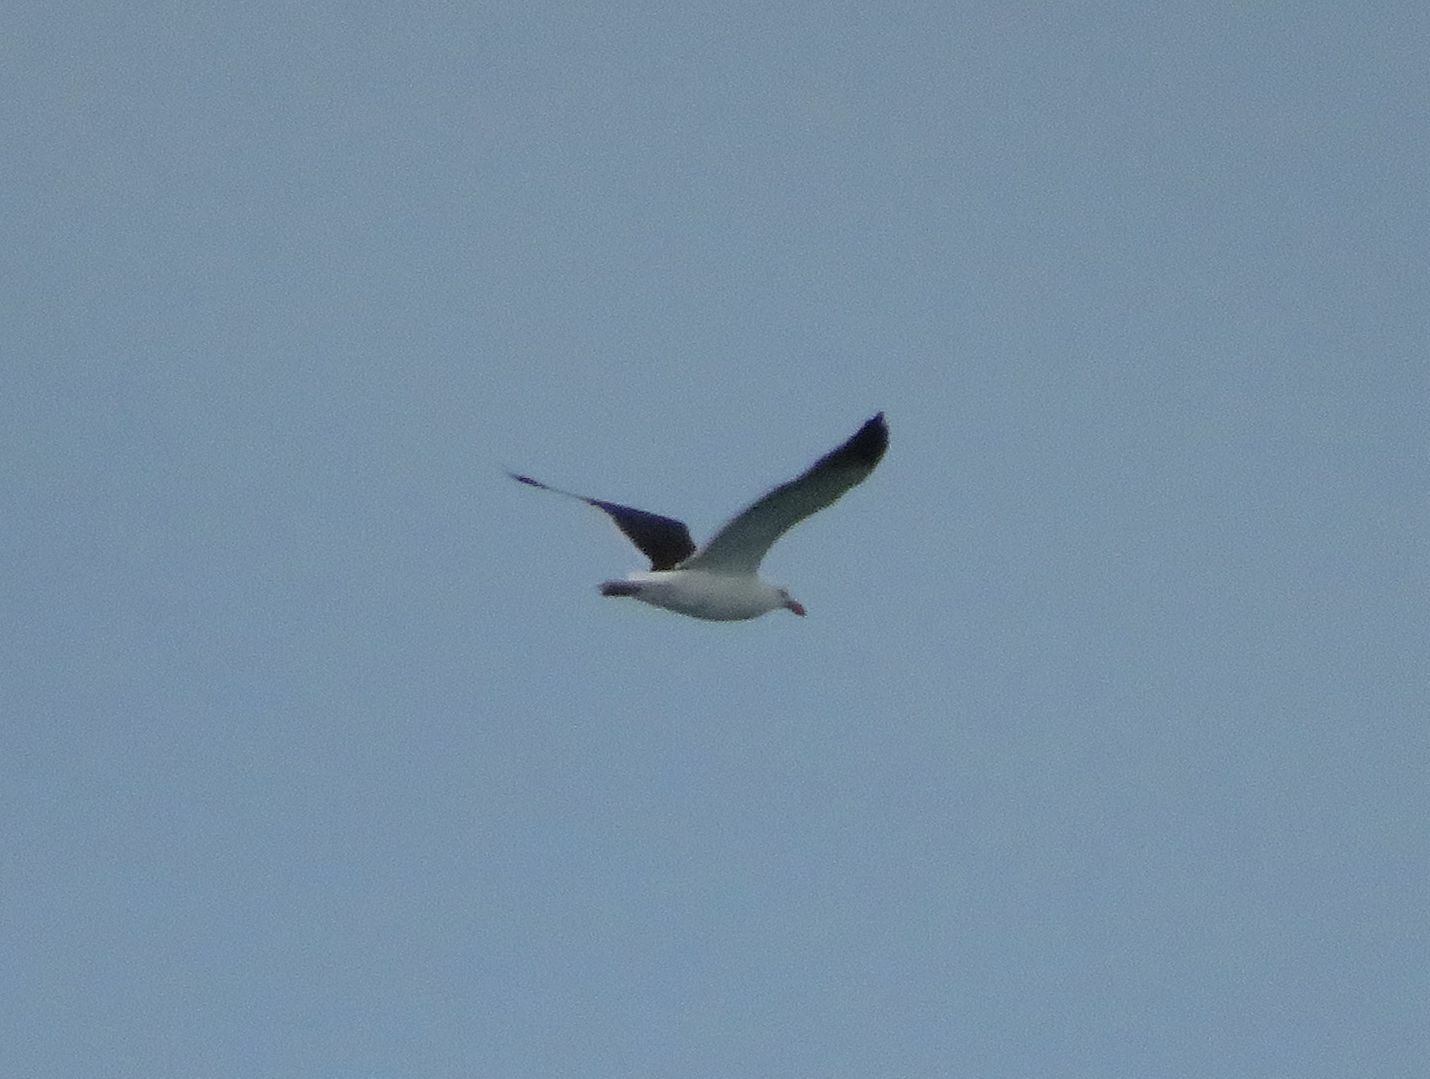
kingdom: Animalia
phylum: Chordata
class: Aves
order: Charadriiformes
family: Laridae
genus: Larus
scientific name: Larus dominicanus
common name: Kelp gull
